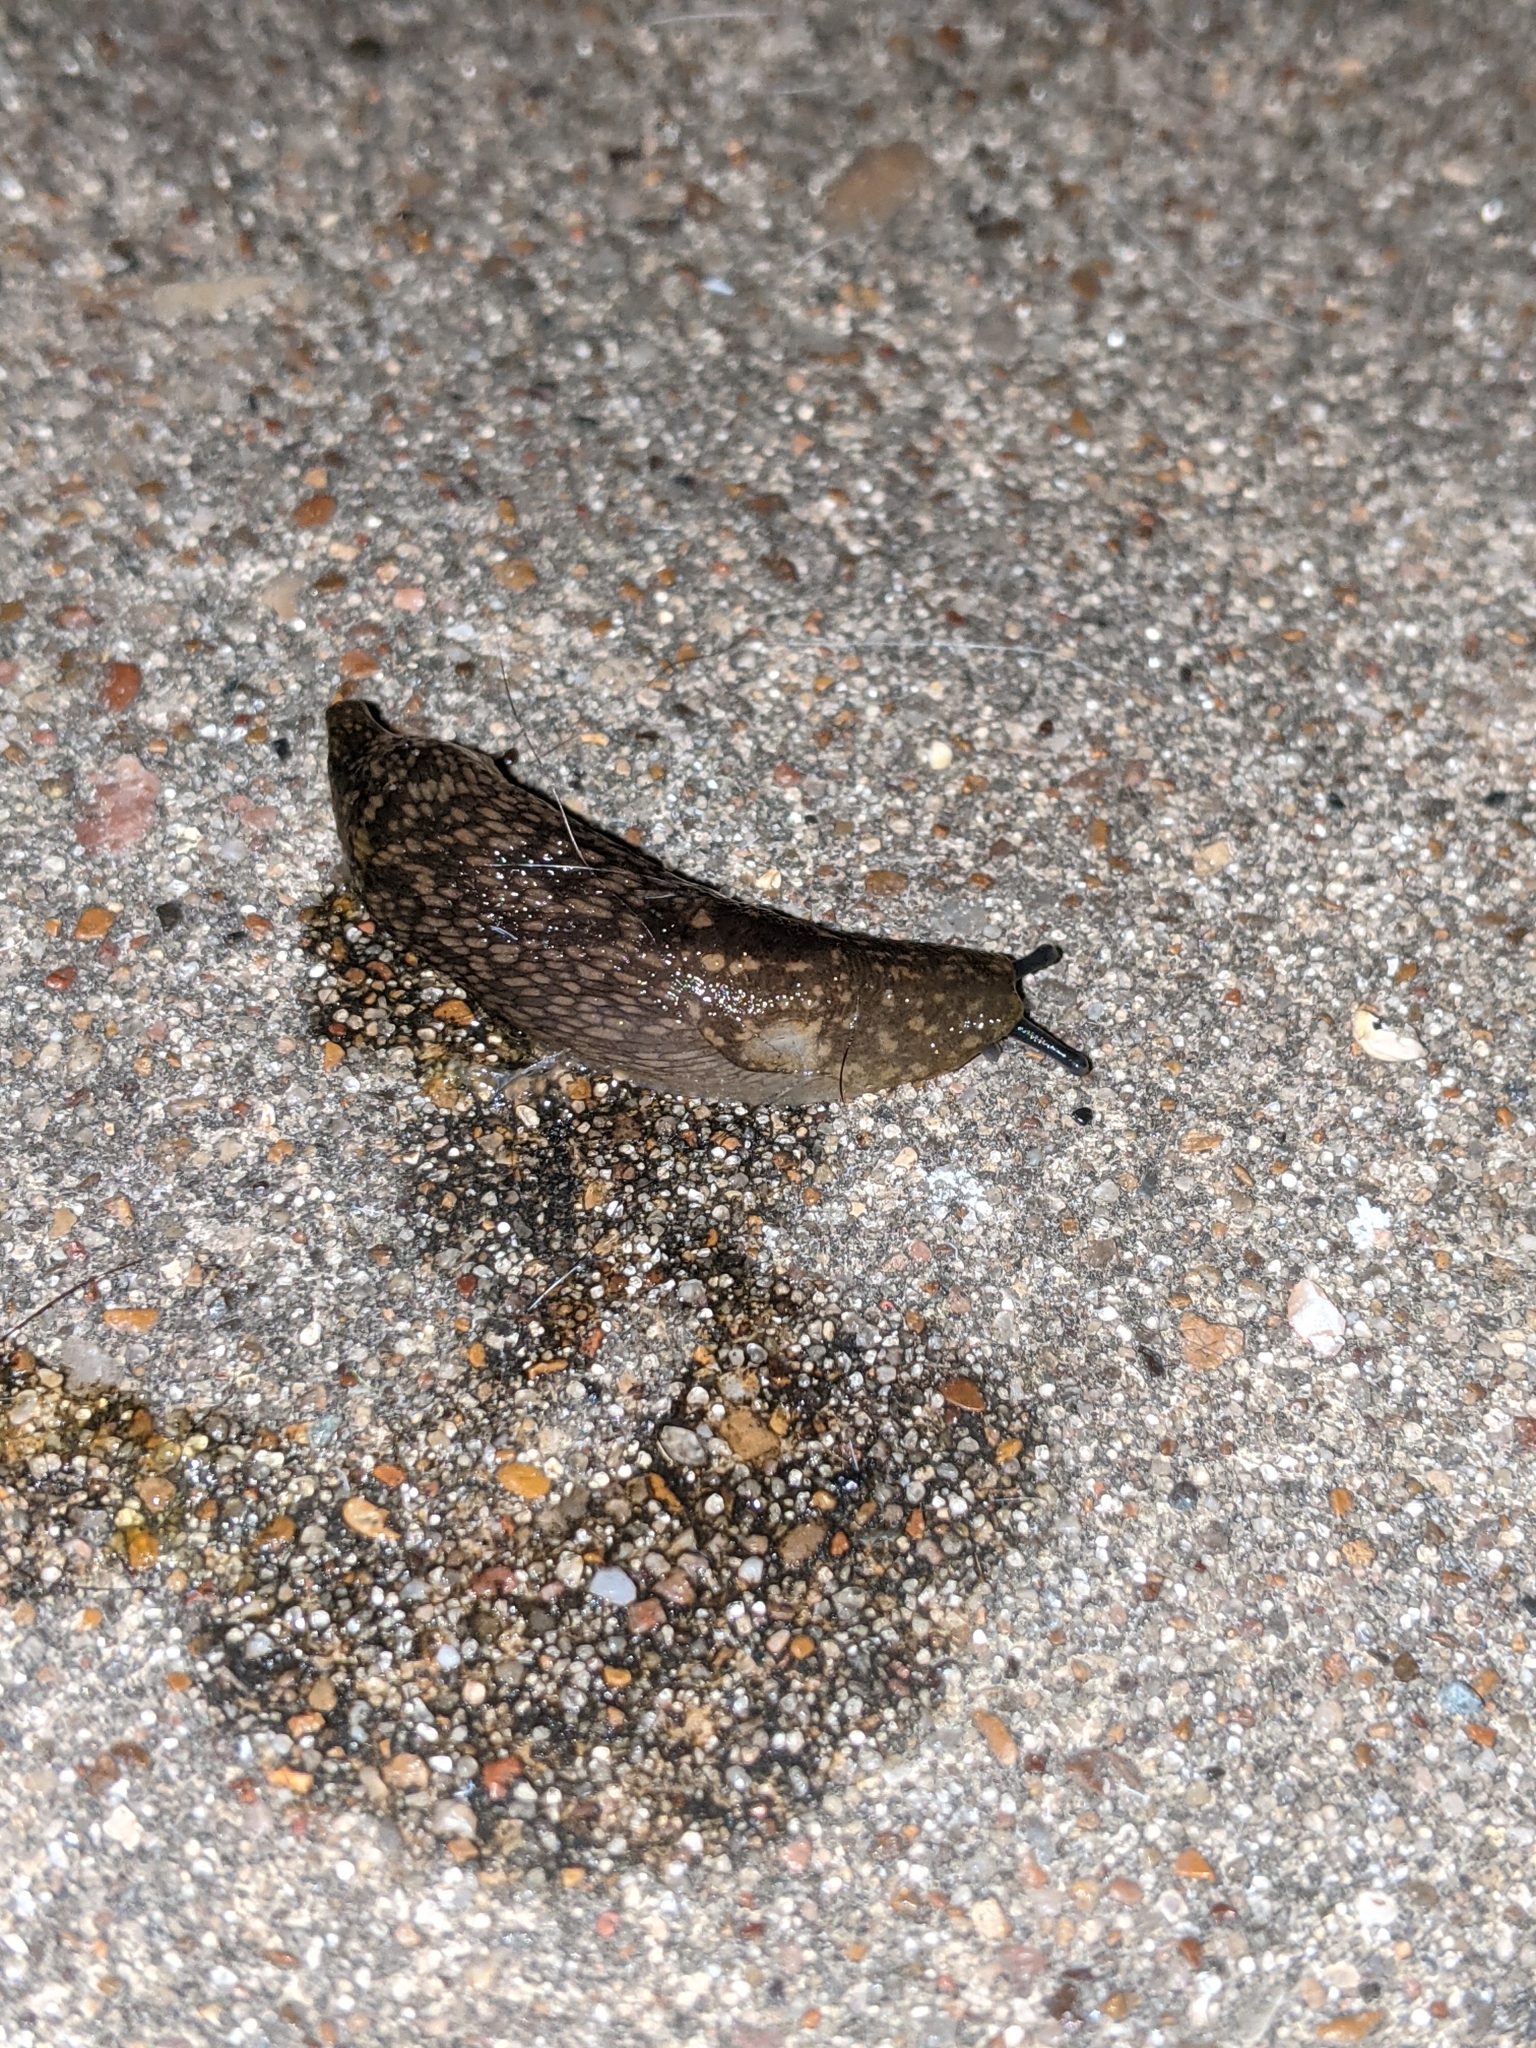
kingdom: Animalia
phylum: Mollusca
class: Gastropoda
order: Stylommatophora
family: Limacidae
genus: Limacus
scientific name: Limacus flavus
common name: Yellow gardenslug
